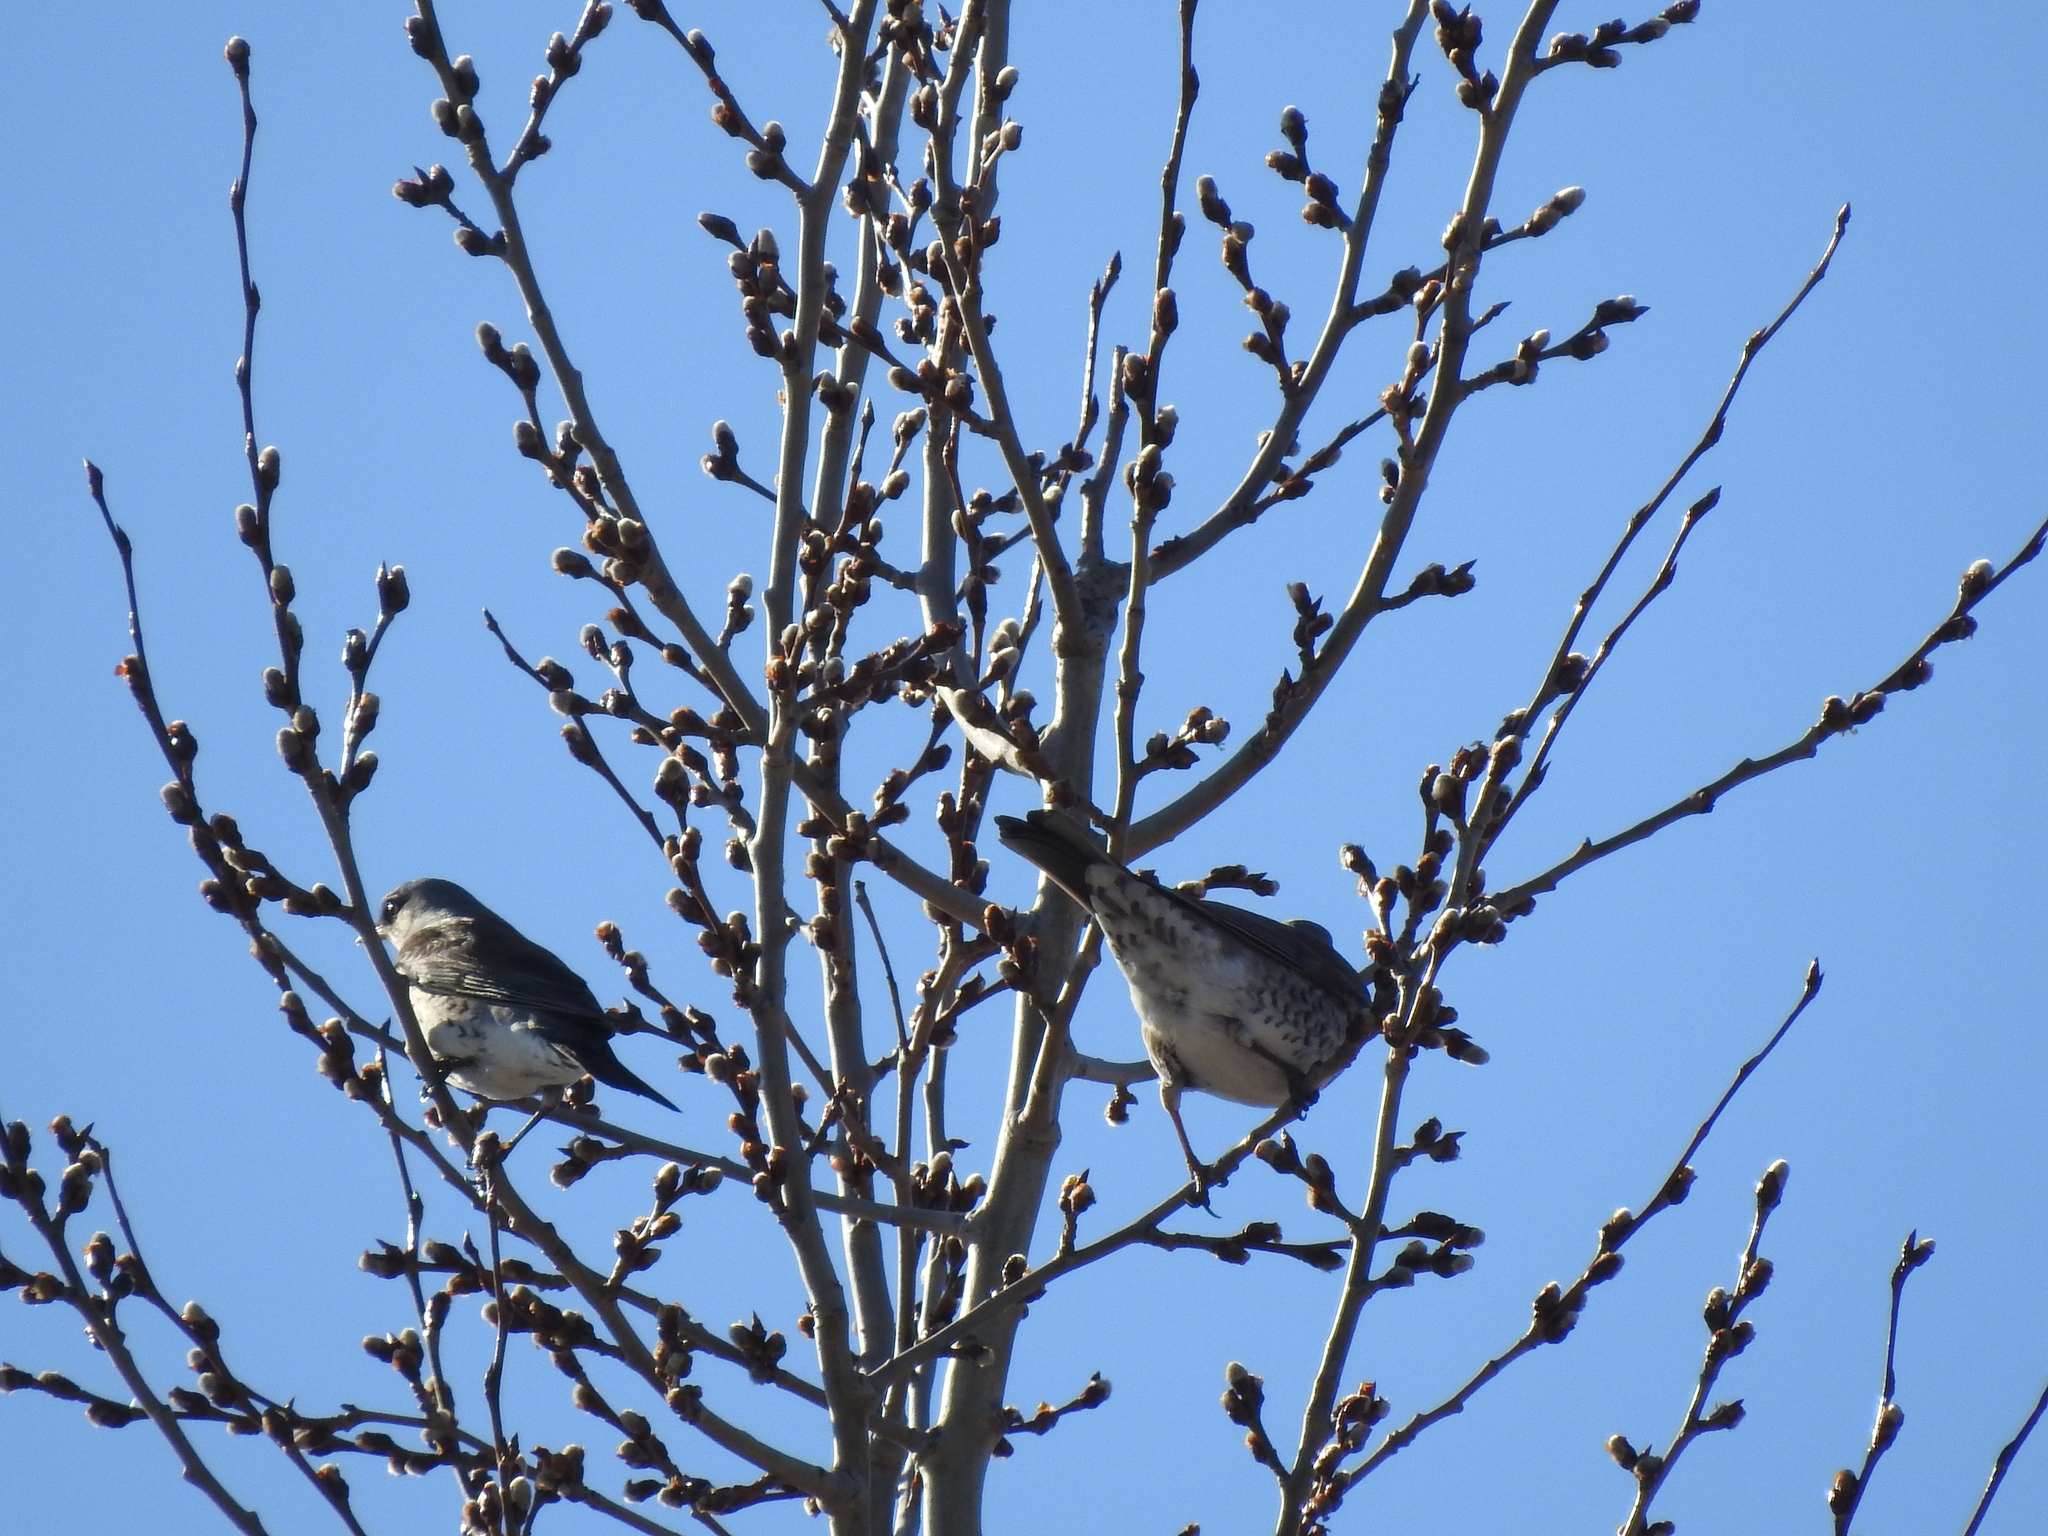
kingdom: Animalia
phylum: Chordata
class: Aves
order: Passeriformes
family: Turdidae
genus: Turdus
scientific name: Turdus pilaris
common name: Fieldfare
